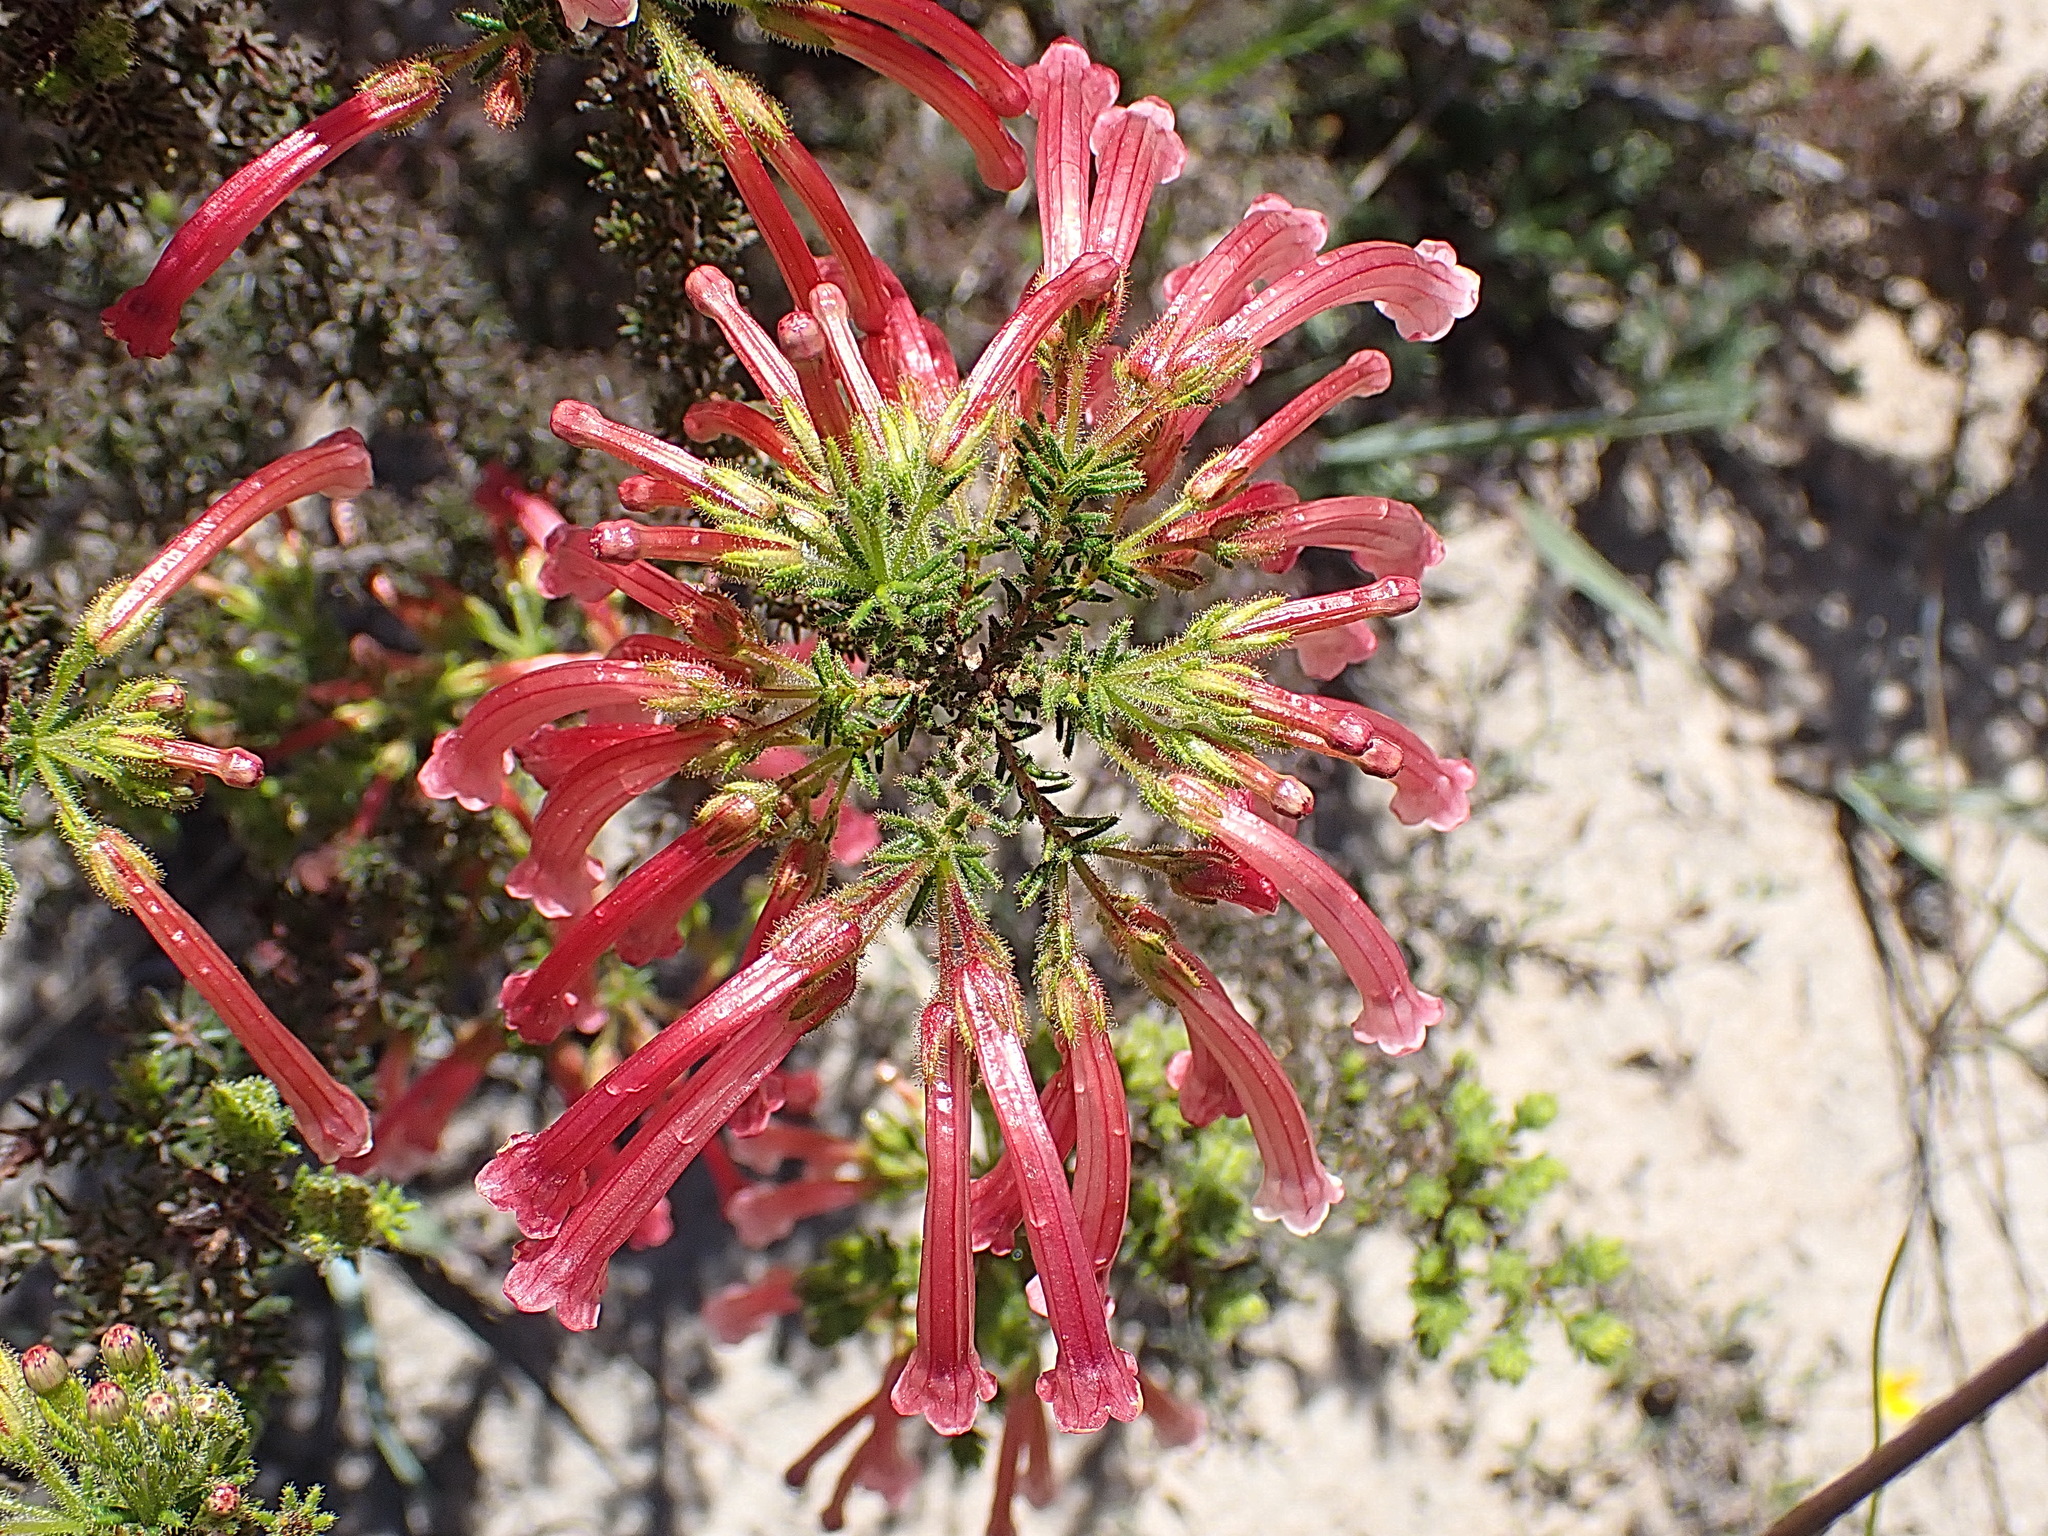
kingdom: Plantae
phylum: Tracheophyta
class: Magnoliopsida
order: Ericales
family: Ericaceae
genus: Erica
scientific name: Erica glandulosa
